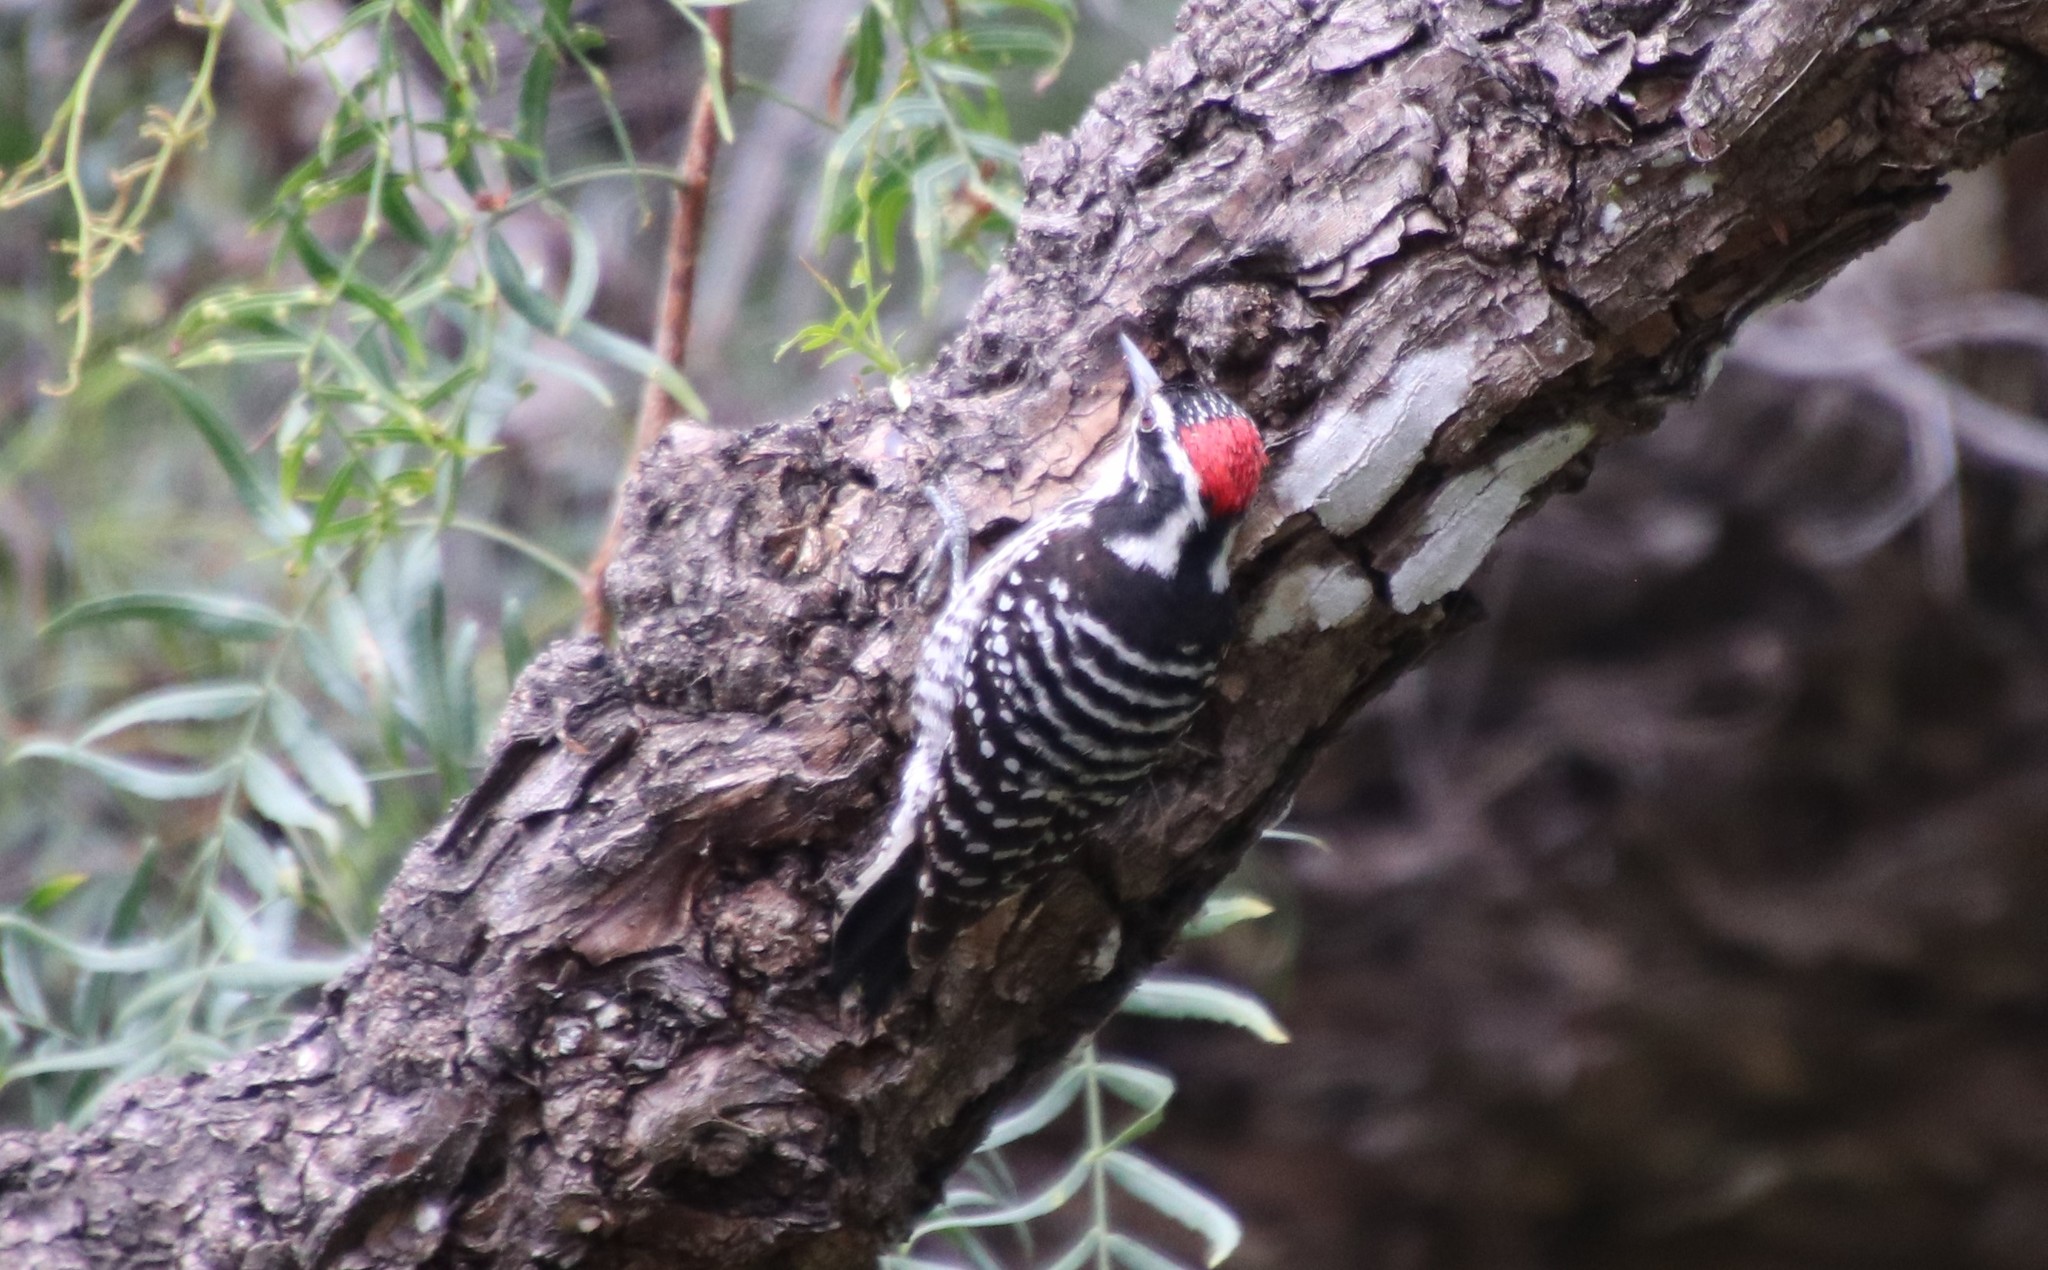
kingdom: Animalia
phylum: Chordata
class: Aves
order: Piciformes
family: Picidae
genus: Dryobates
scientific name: Dryobates nuttallii
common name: Nuttall's woodpecker
